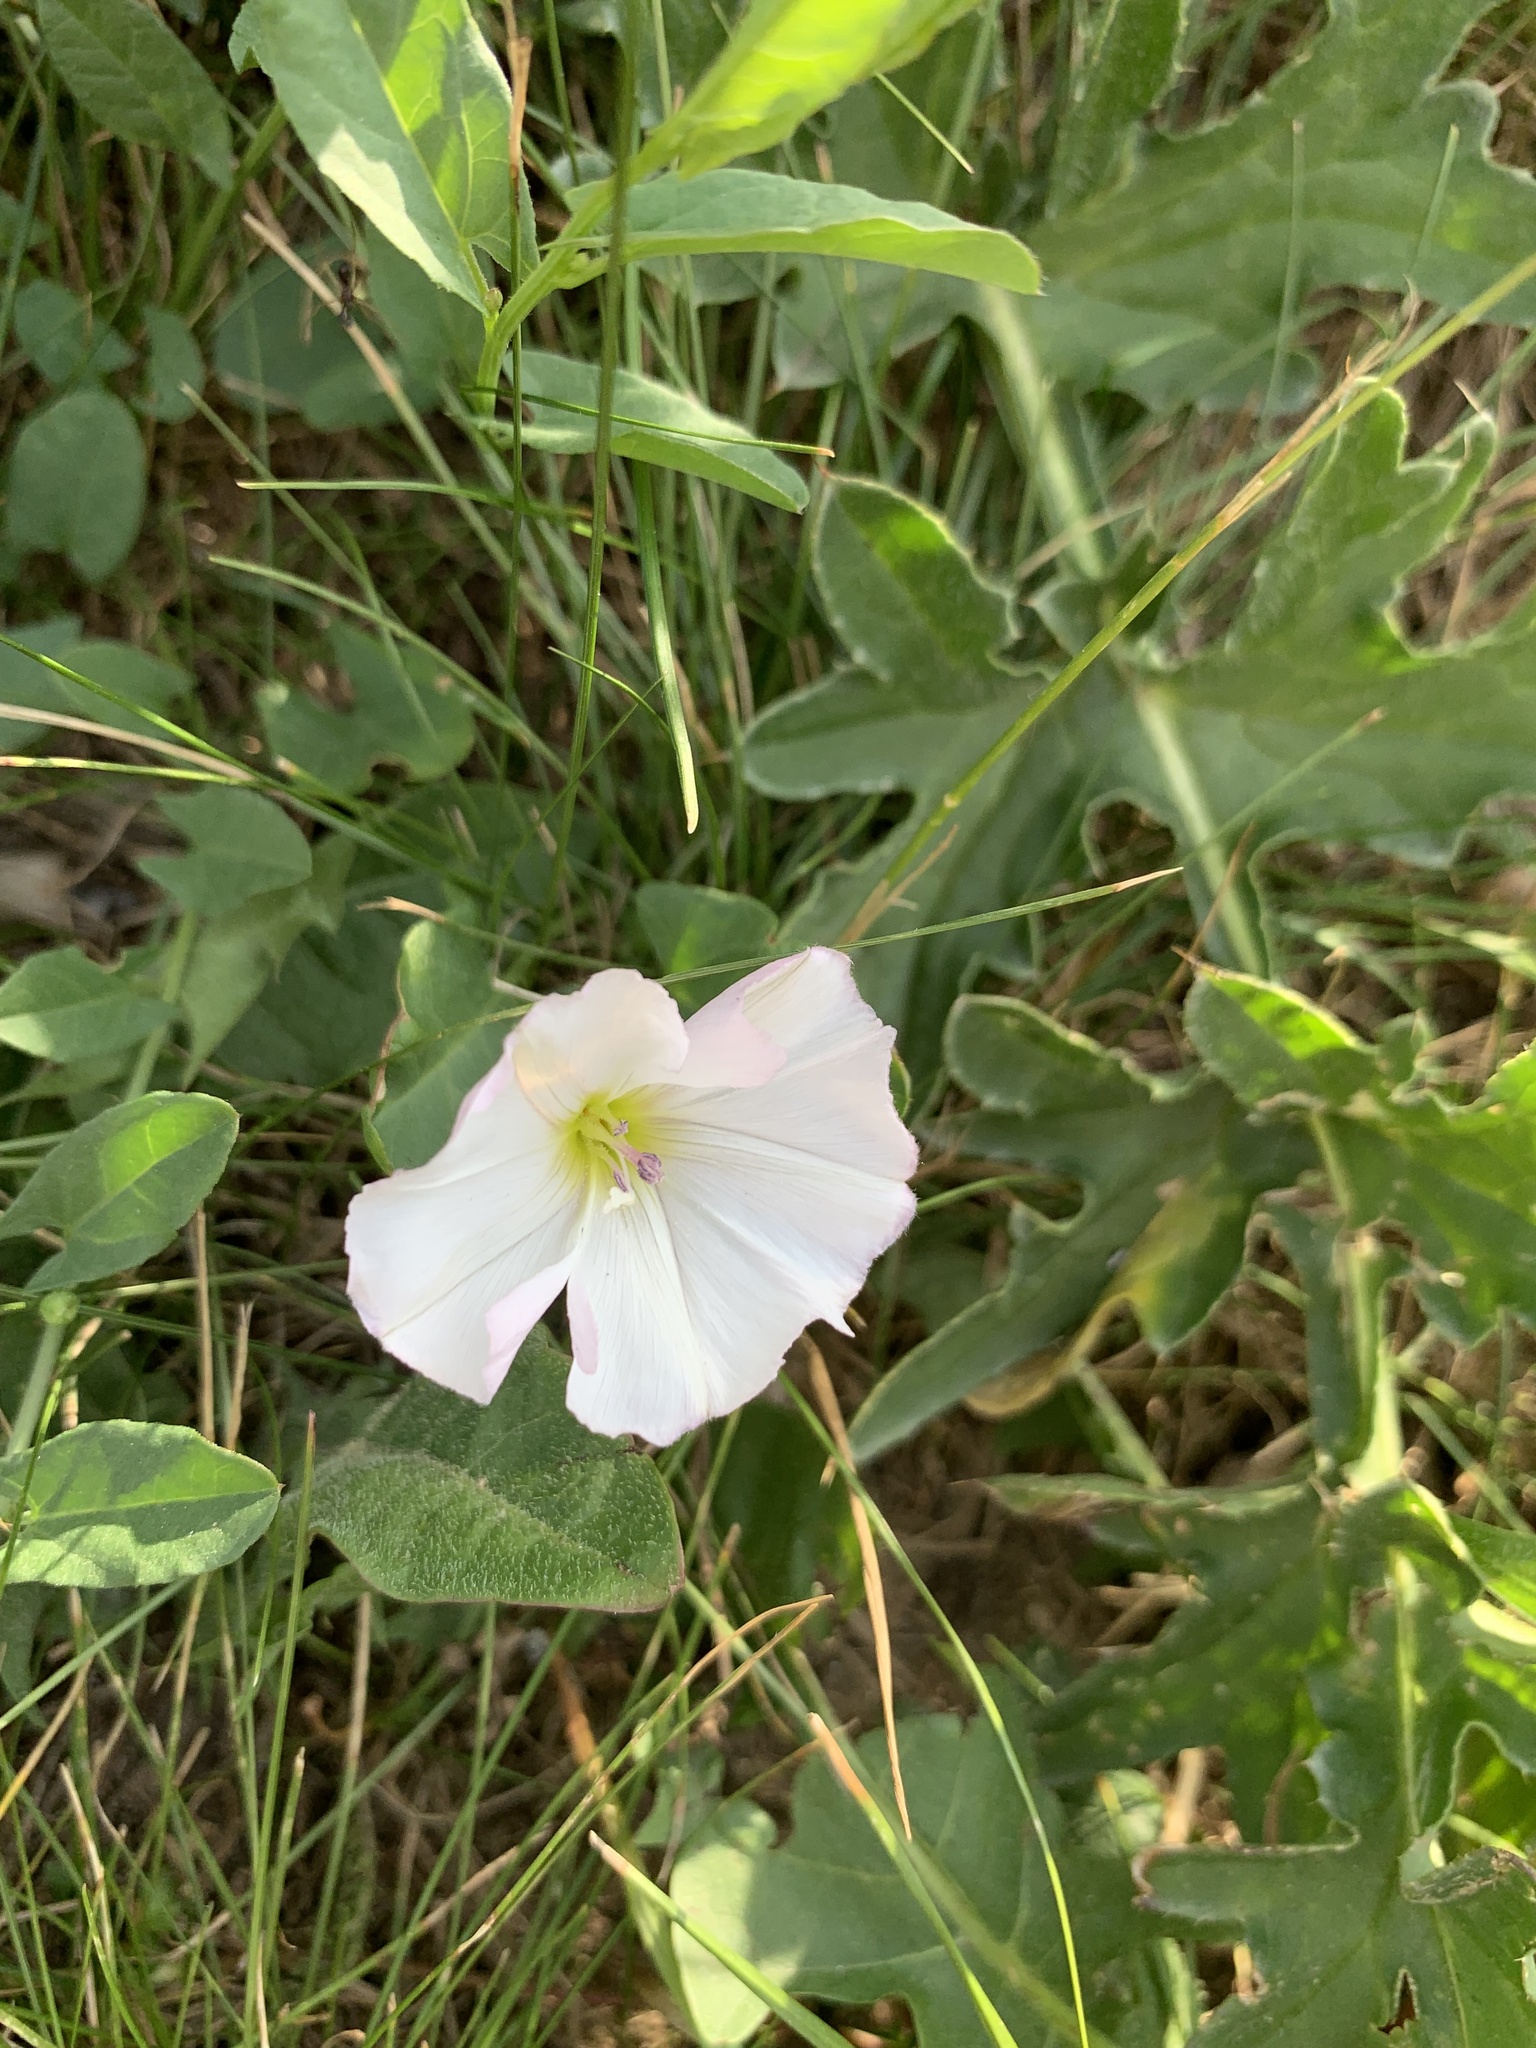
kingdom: Plantae
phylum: Tracheophyta
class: Magnoliopsida
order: Solanales
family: Convolvulaceae
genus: Convolvulus
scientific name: Convolvulus arvensis
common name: Field bindweed
